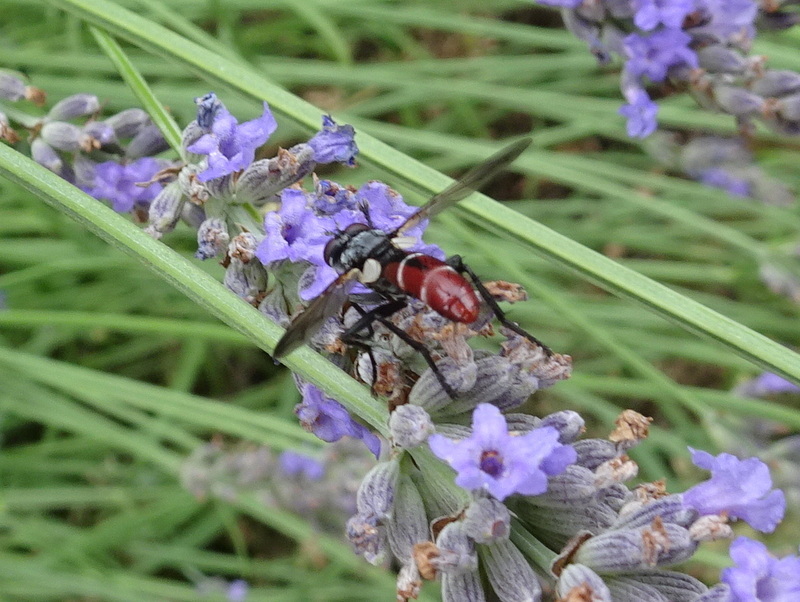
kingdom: Animalia
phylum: Arthropoda
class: Insecta
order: Diptera
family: Tachinidae
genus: Cylindromyia
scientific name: Cylindromyia bicolor
